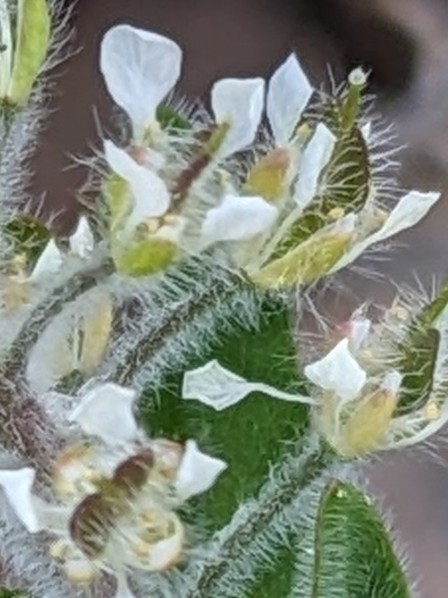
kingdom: Plantae
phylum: Tracheophyta
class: Magnoliopsida
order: Brassicales
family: Brassicaceae
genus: Lepidium
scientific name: Lepidium hirtum
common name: Mediterranean pepperweed
